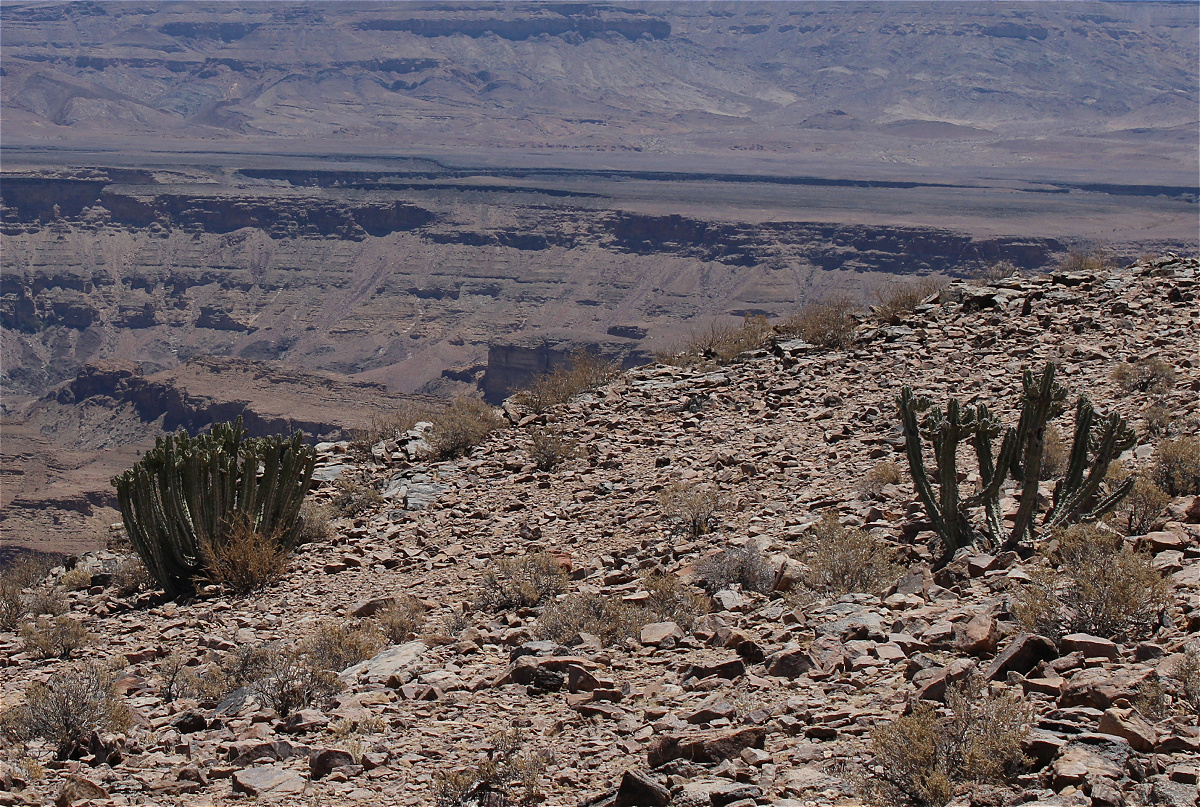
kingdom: Plantae
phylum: Tracheophyta
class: Magnoliopsida
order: Malpighiales
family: Euphorbiaceae
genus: Euphorbia
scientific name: Euphorbia virosa
